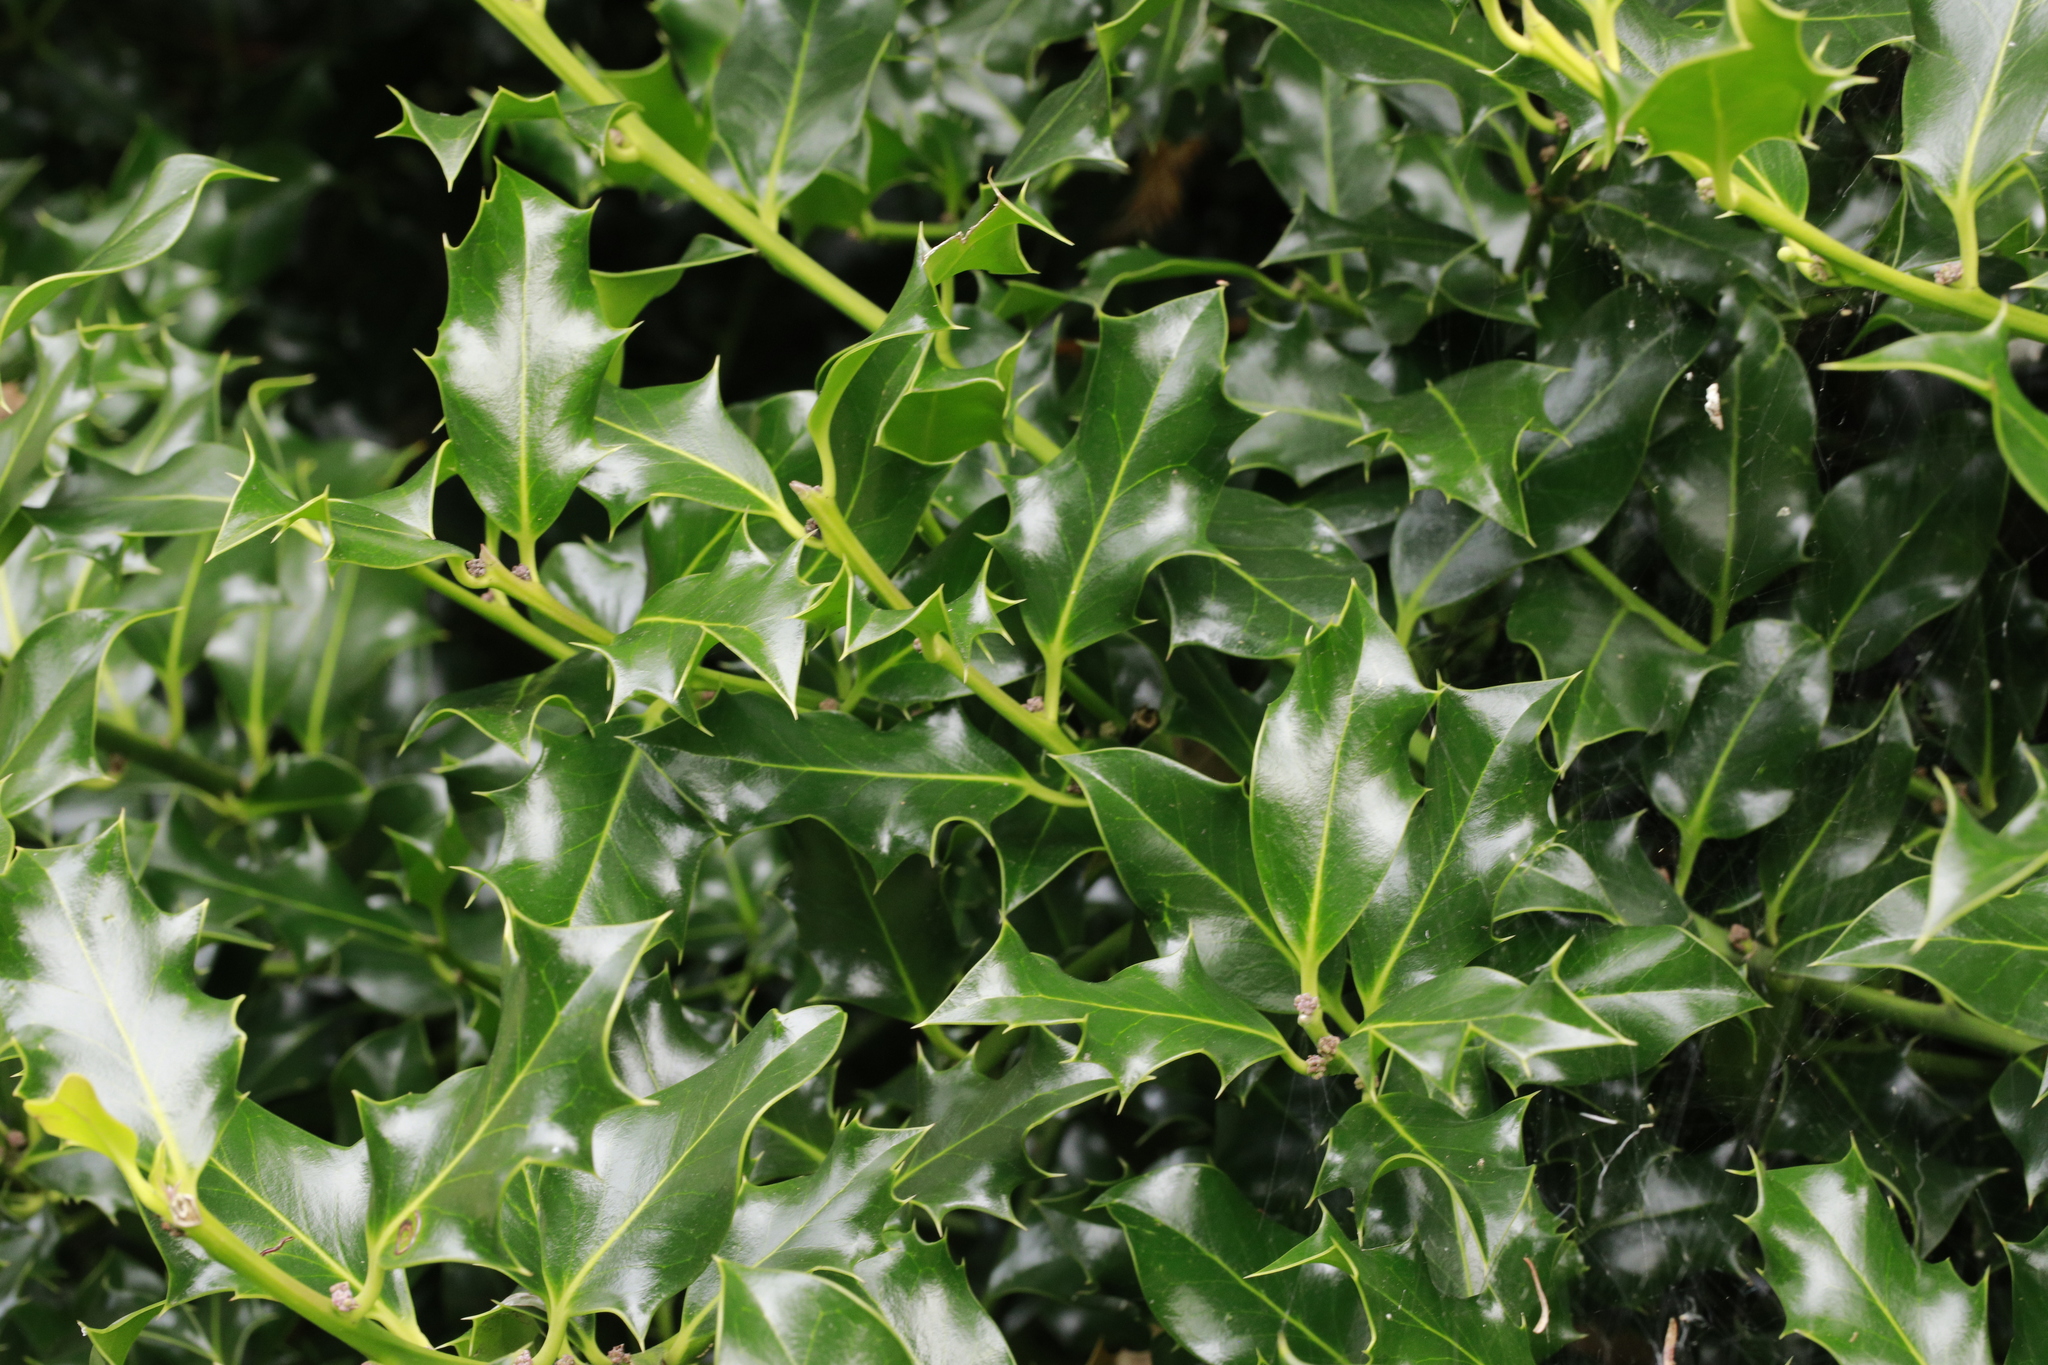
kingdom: Plantae
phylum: Tracheophyta
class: Magnoliopsida
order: Aquifoliales
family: Aquifoliaceae
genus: Ilex
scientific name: Ilex aquifolium
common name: English holly
